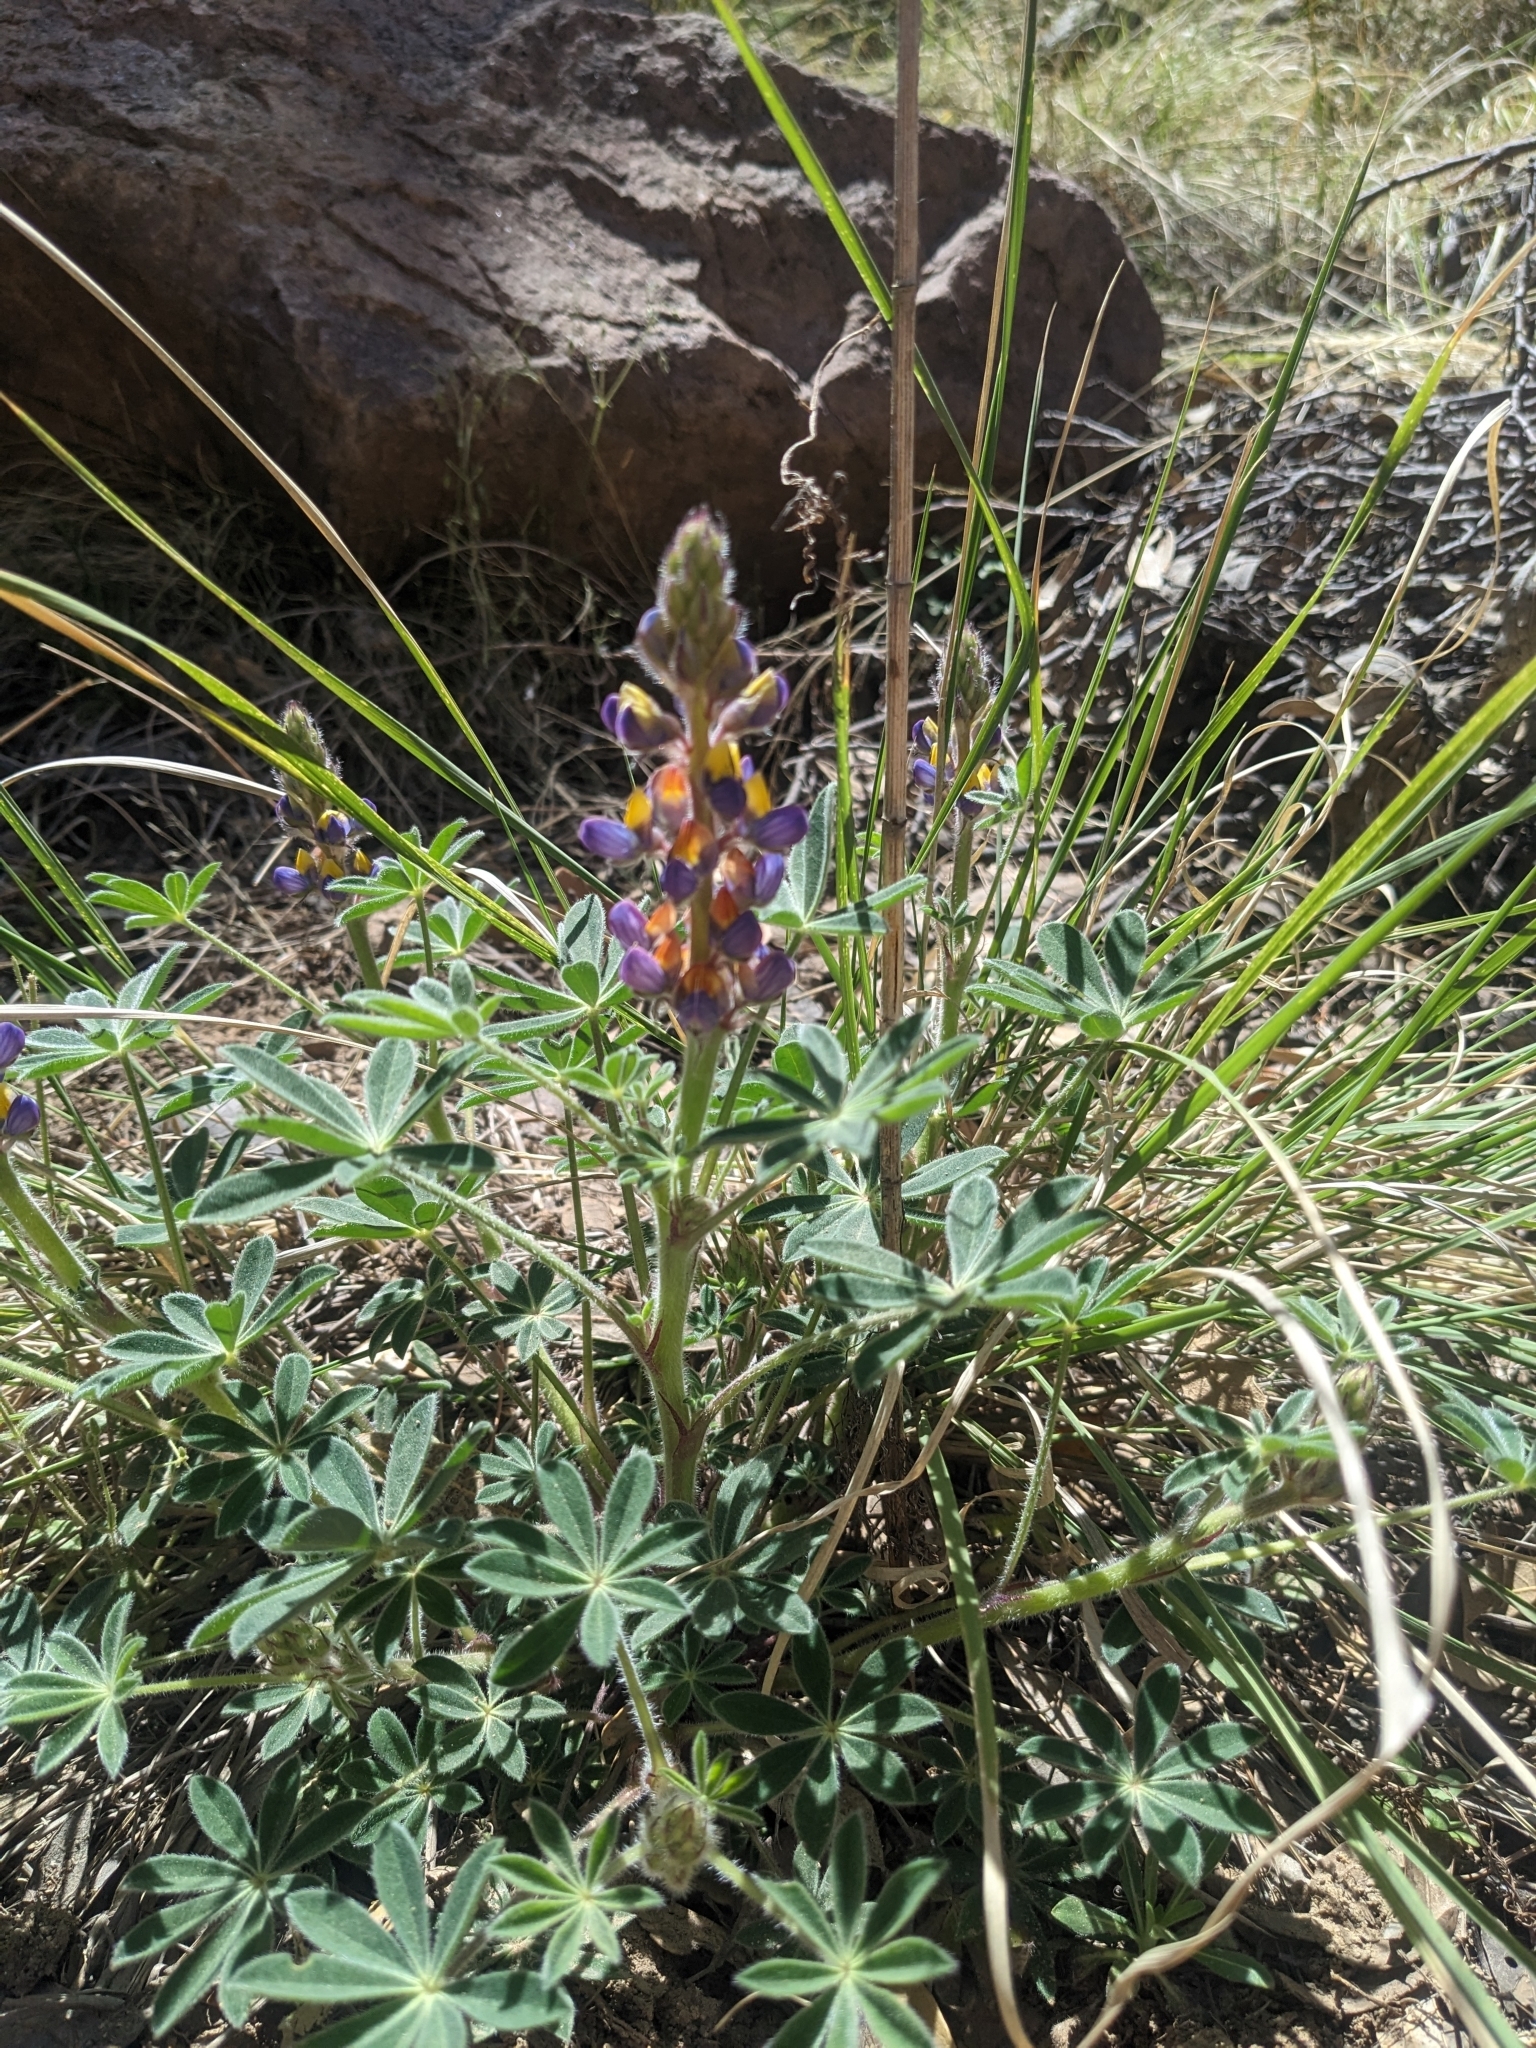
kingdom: Plantae
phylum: Tracheophyta
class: Magnoliopsida
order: Fabales
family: Fabaceae
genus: Lupinus
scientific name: Lupinus huachucanus
